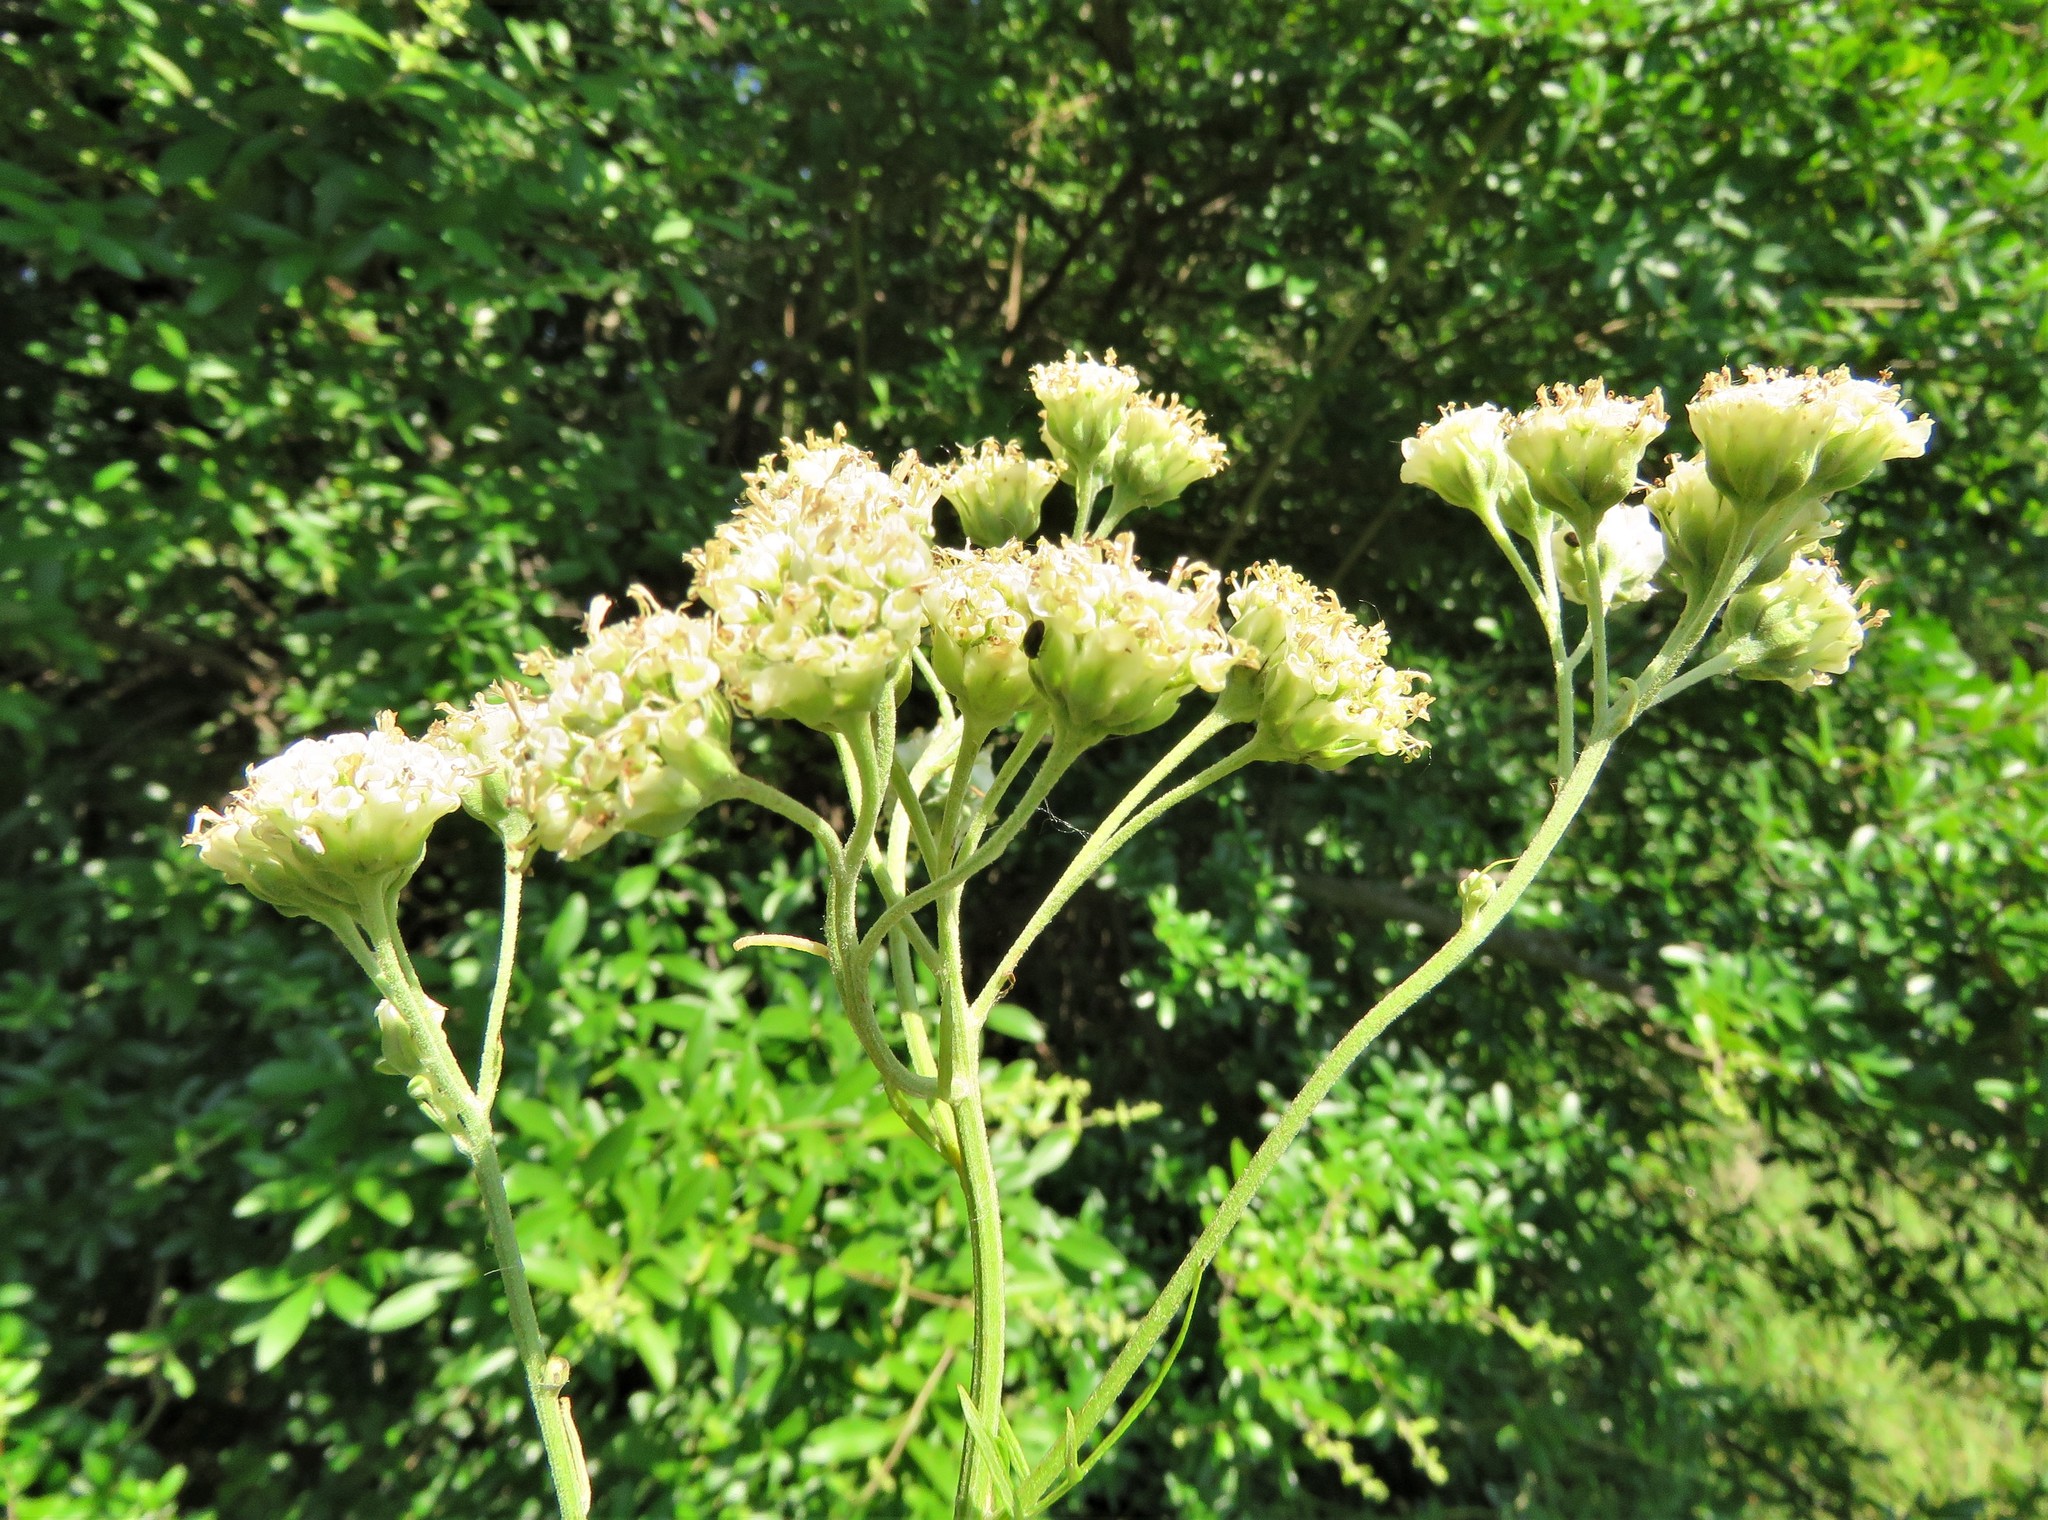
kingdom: Plantae
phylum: Tracheophyta
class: Magnoliopsida
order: Asterales
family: Asteraceae
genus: Hymenopappus
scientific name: Hymenopappus scabiosaeus
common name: Carolina woollywhite
